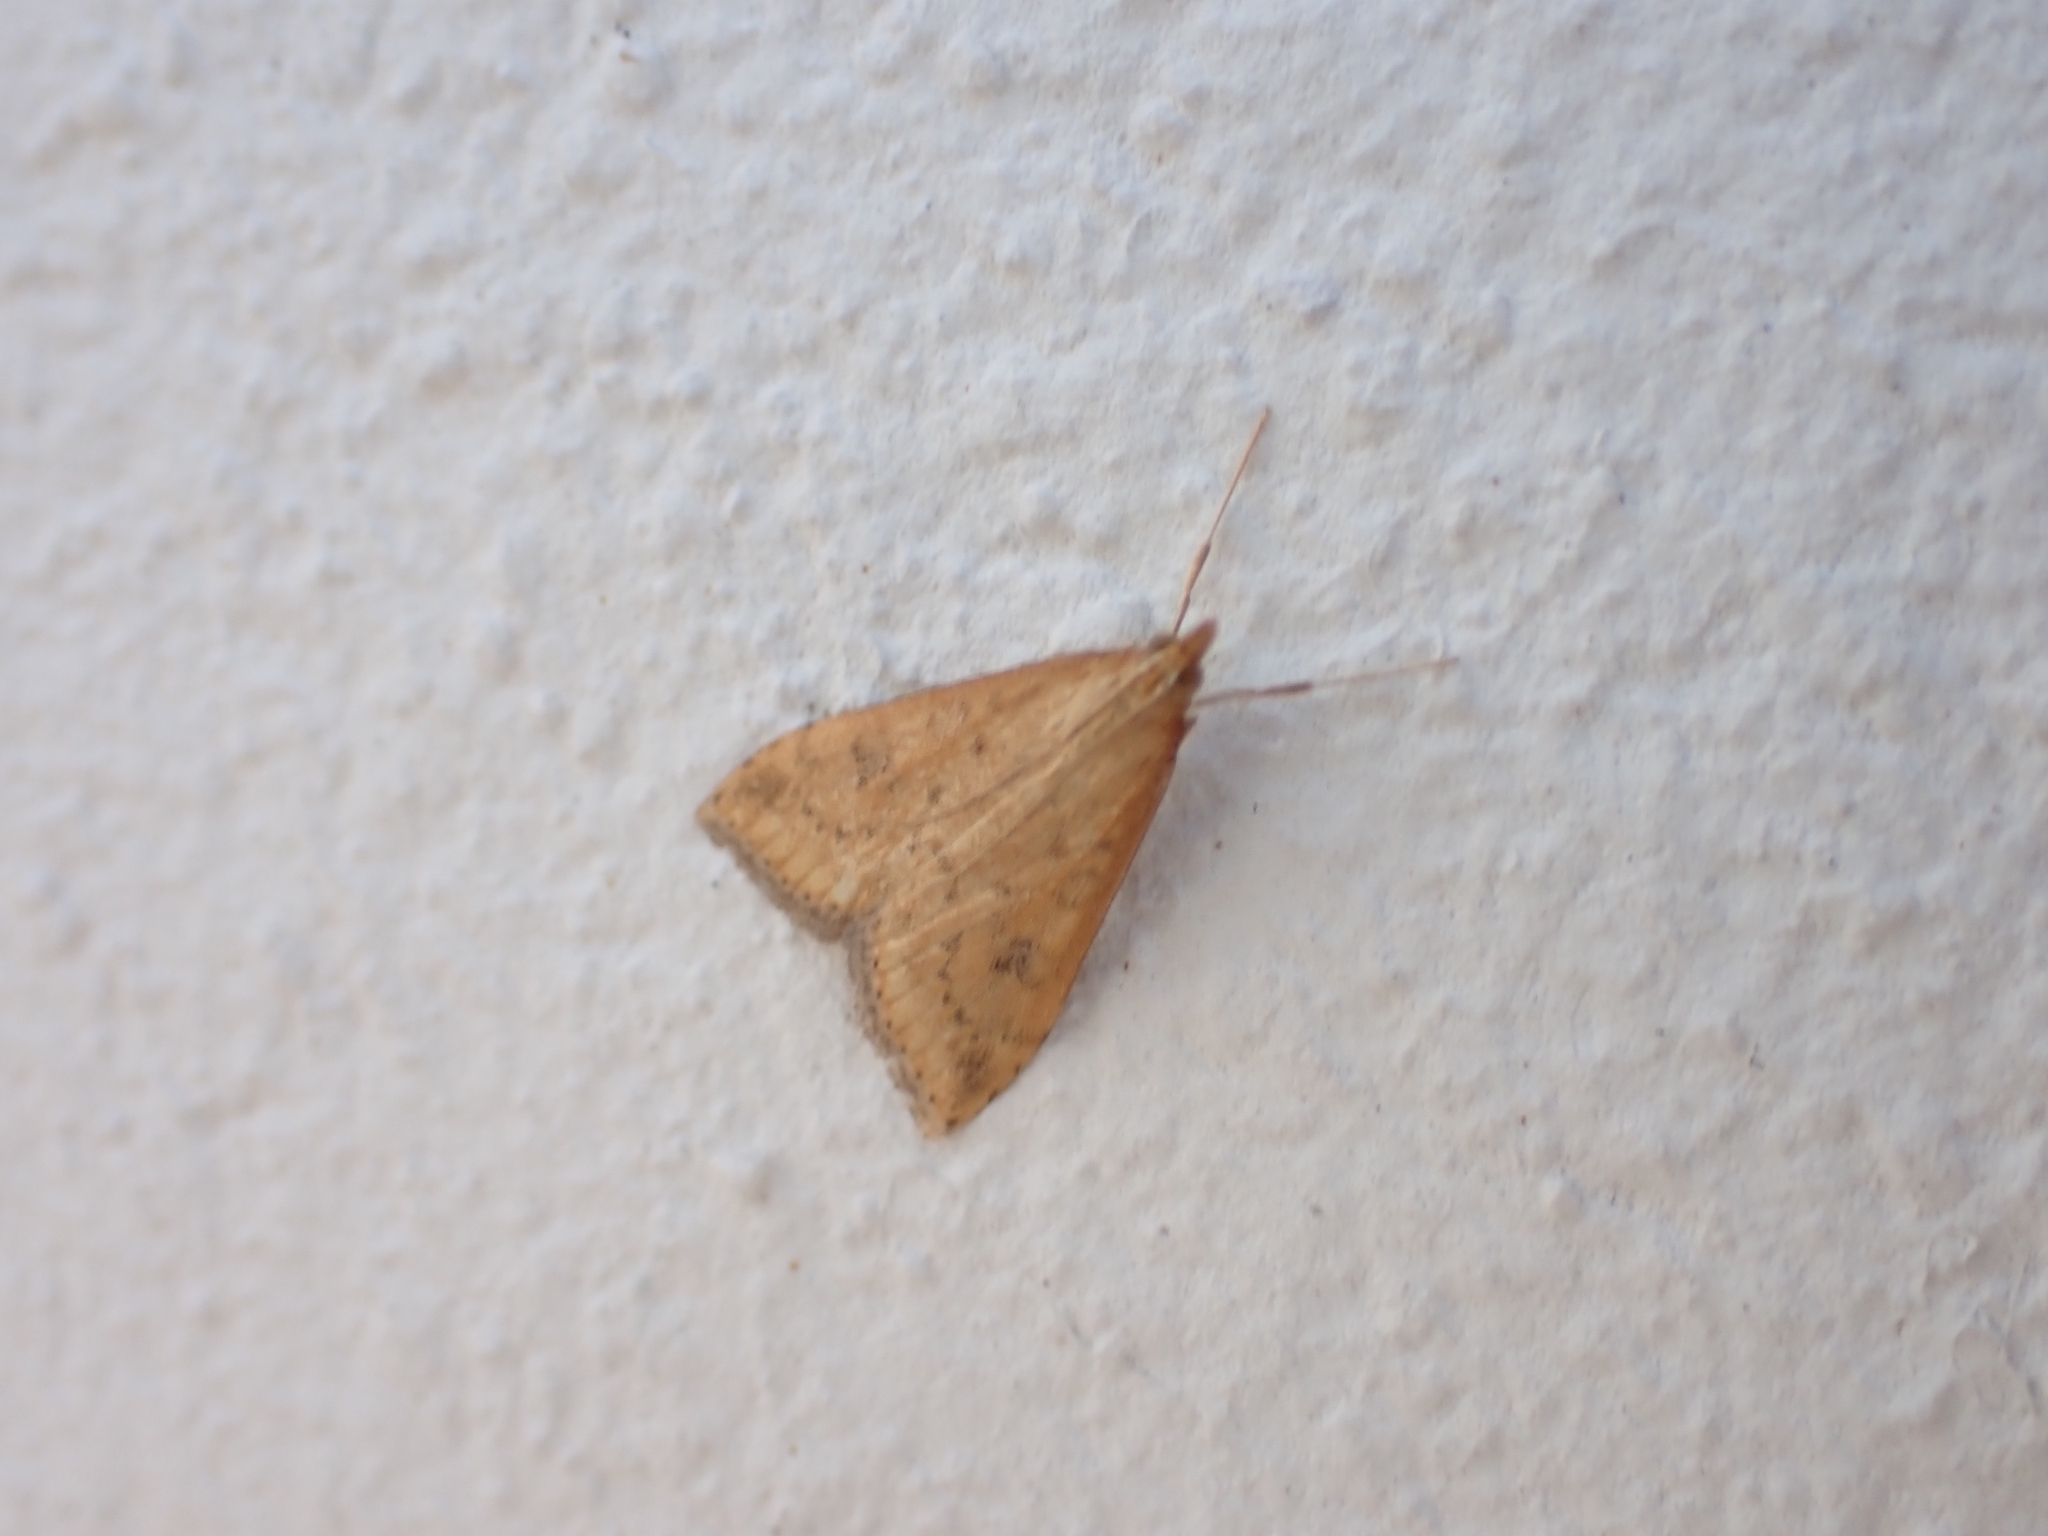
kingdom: Animalia
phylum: Arthropoda
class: Insecta
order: Lepidoptera
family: Crambidae
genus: Udea
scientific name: Udea ferrugalis
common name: Rusty dot
